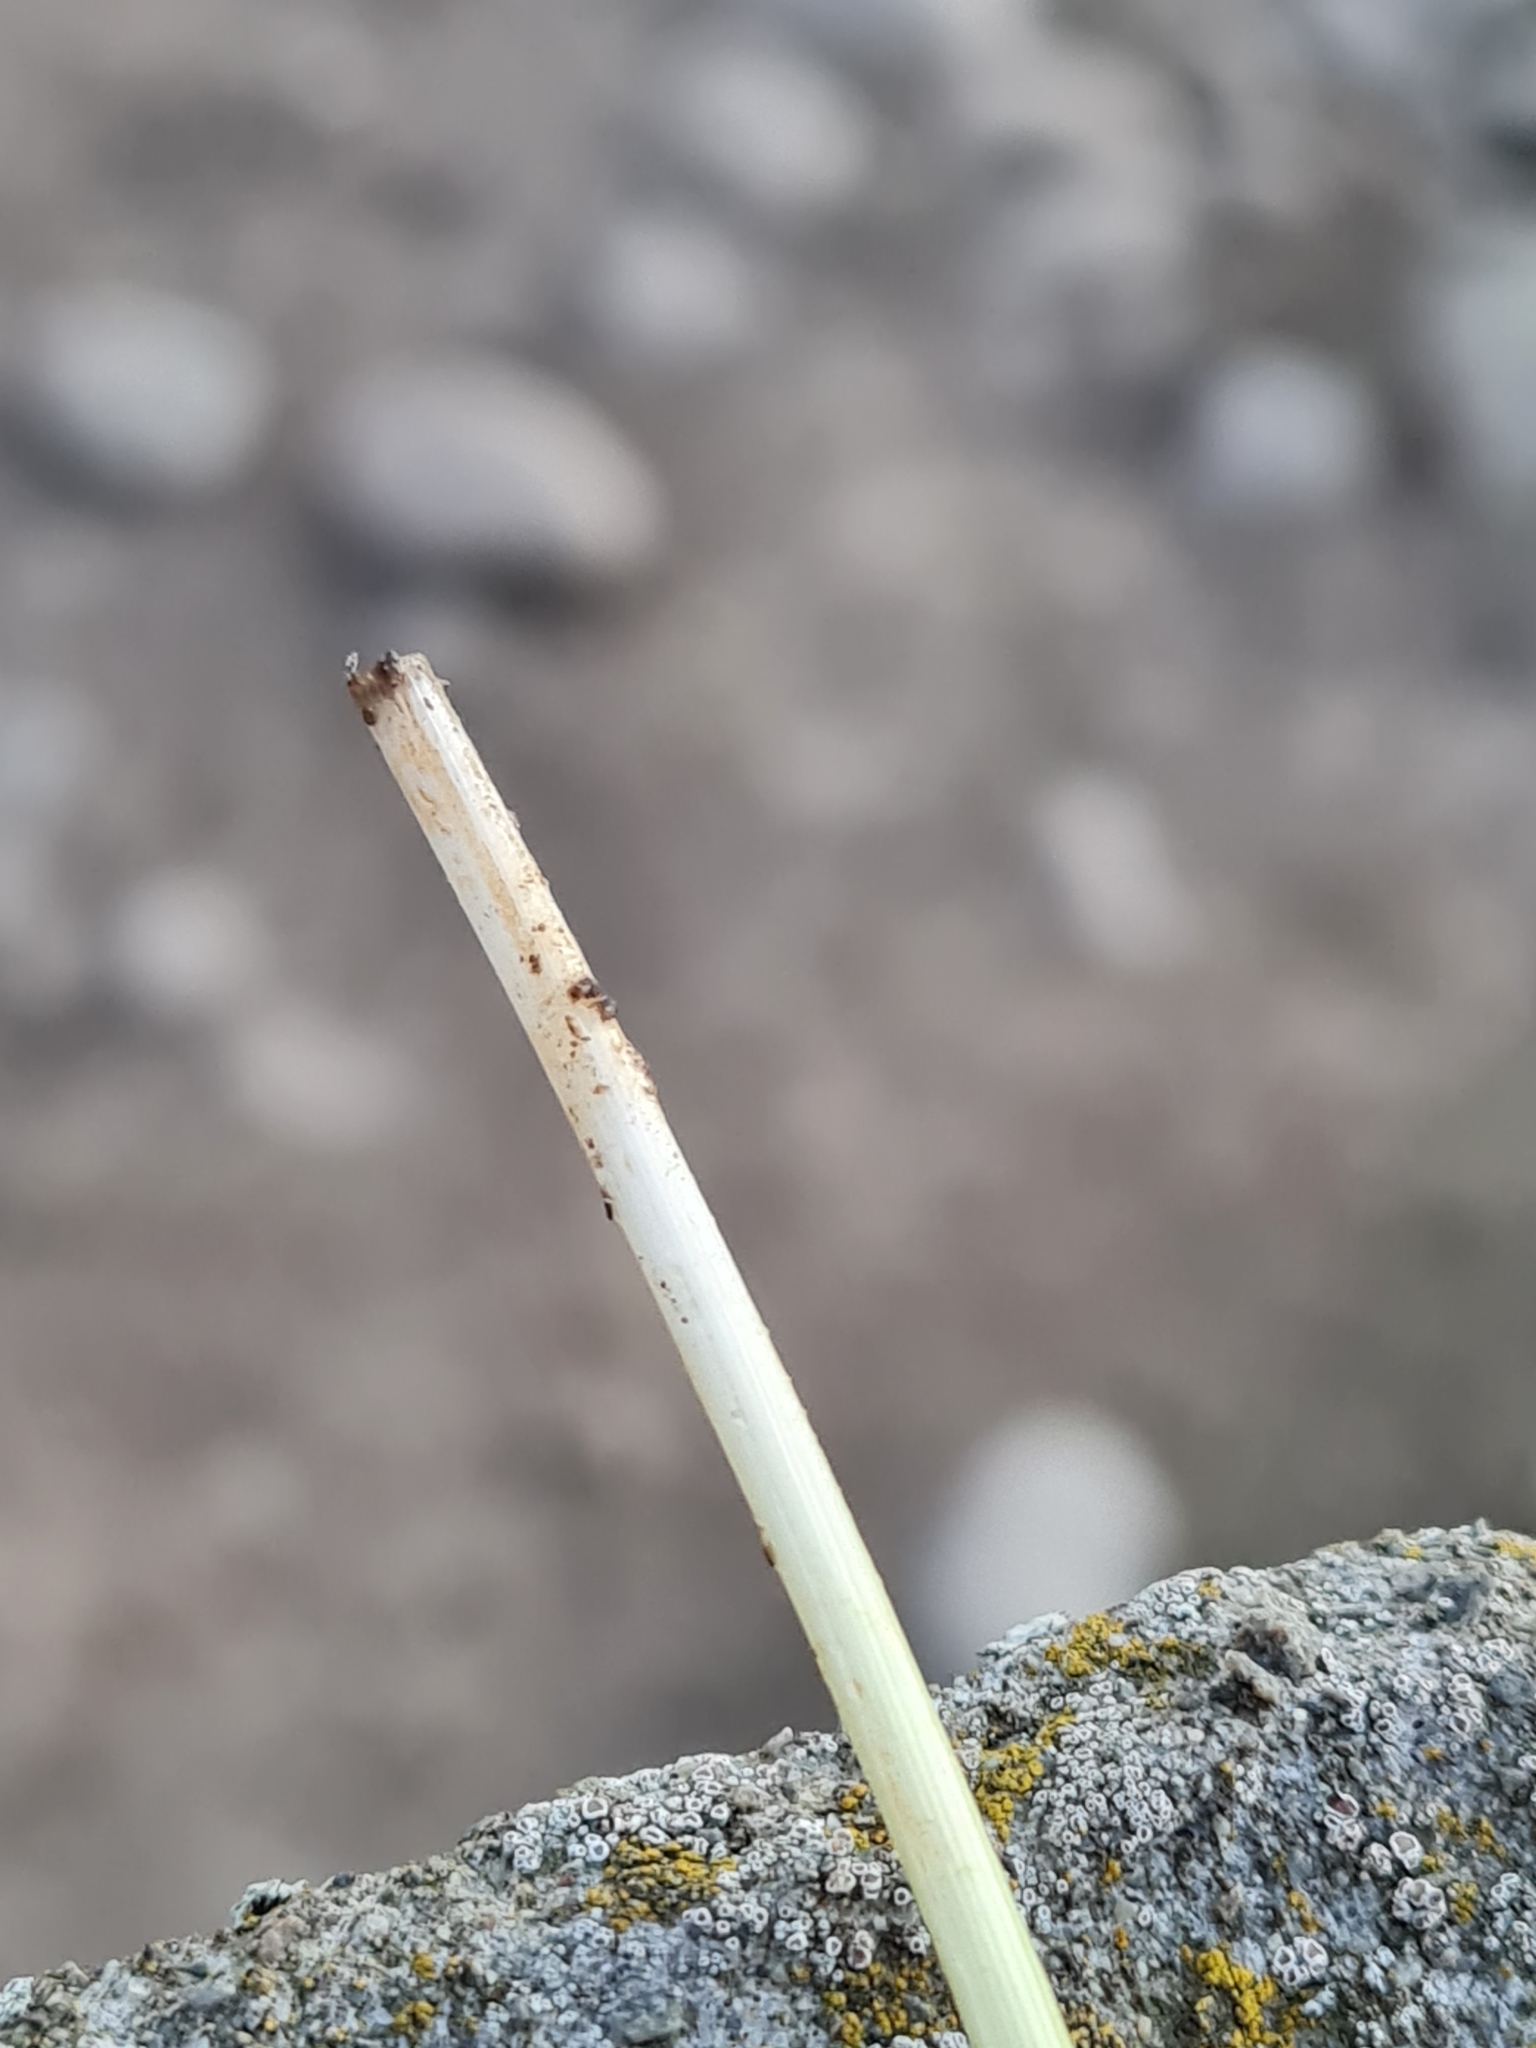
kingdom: Plantae
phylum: Tracheophyta
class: Liliopsida
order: Poales
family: Poaceae
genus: Glyceria
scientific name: Glyceria fluitans
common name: Floating sweet-grass
